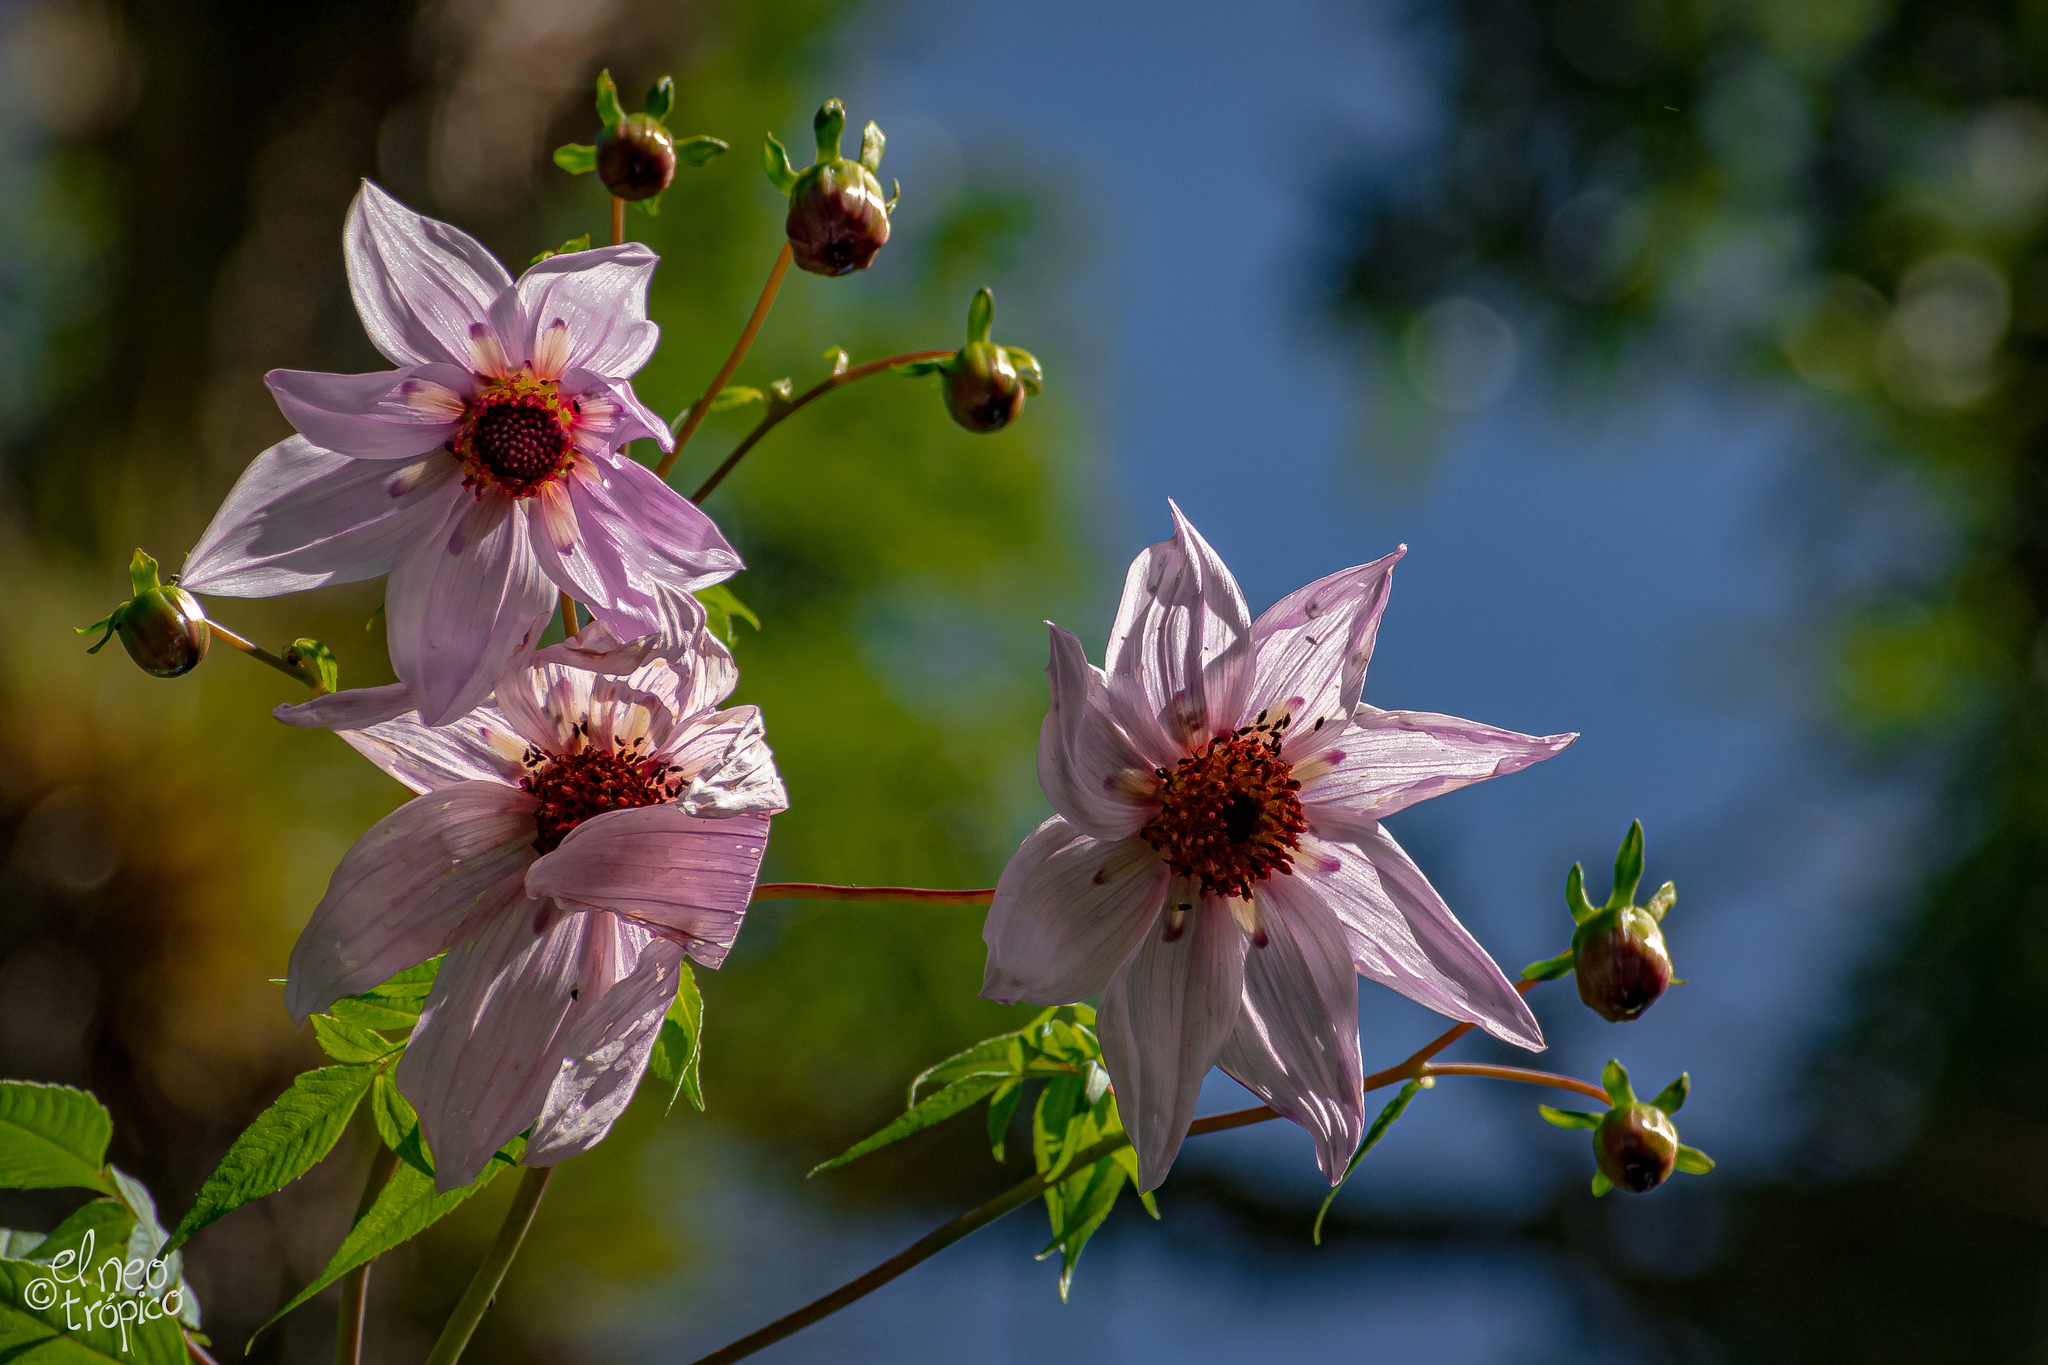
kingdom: Plantae
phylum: Tracheophyta
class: Magnoliopsida
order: Asterales
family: Asteraceae
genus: Dahlia
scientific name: Dahlia imperialis
